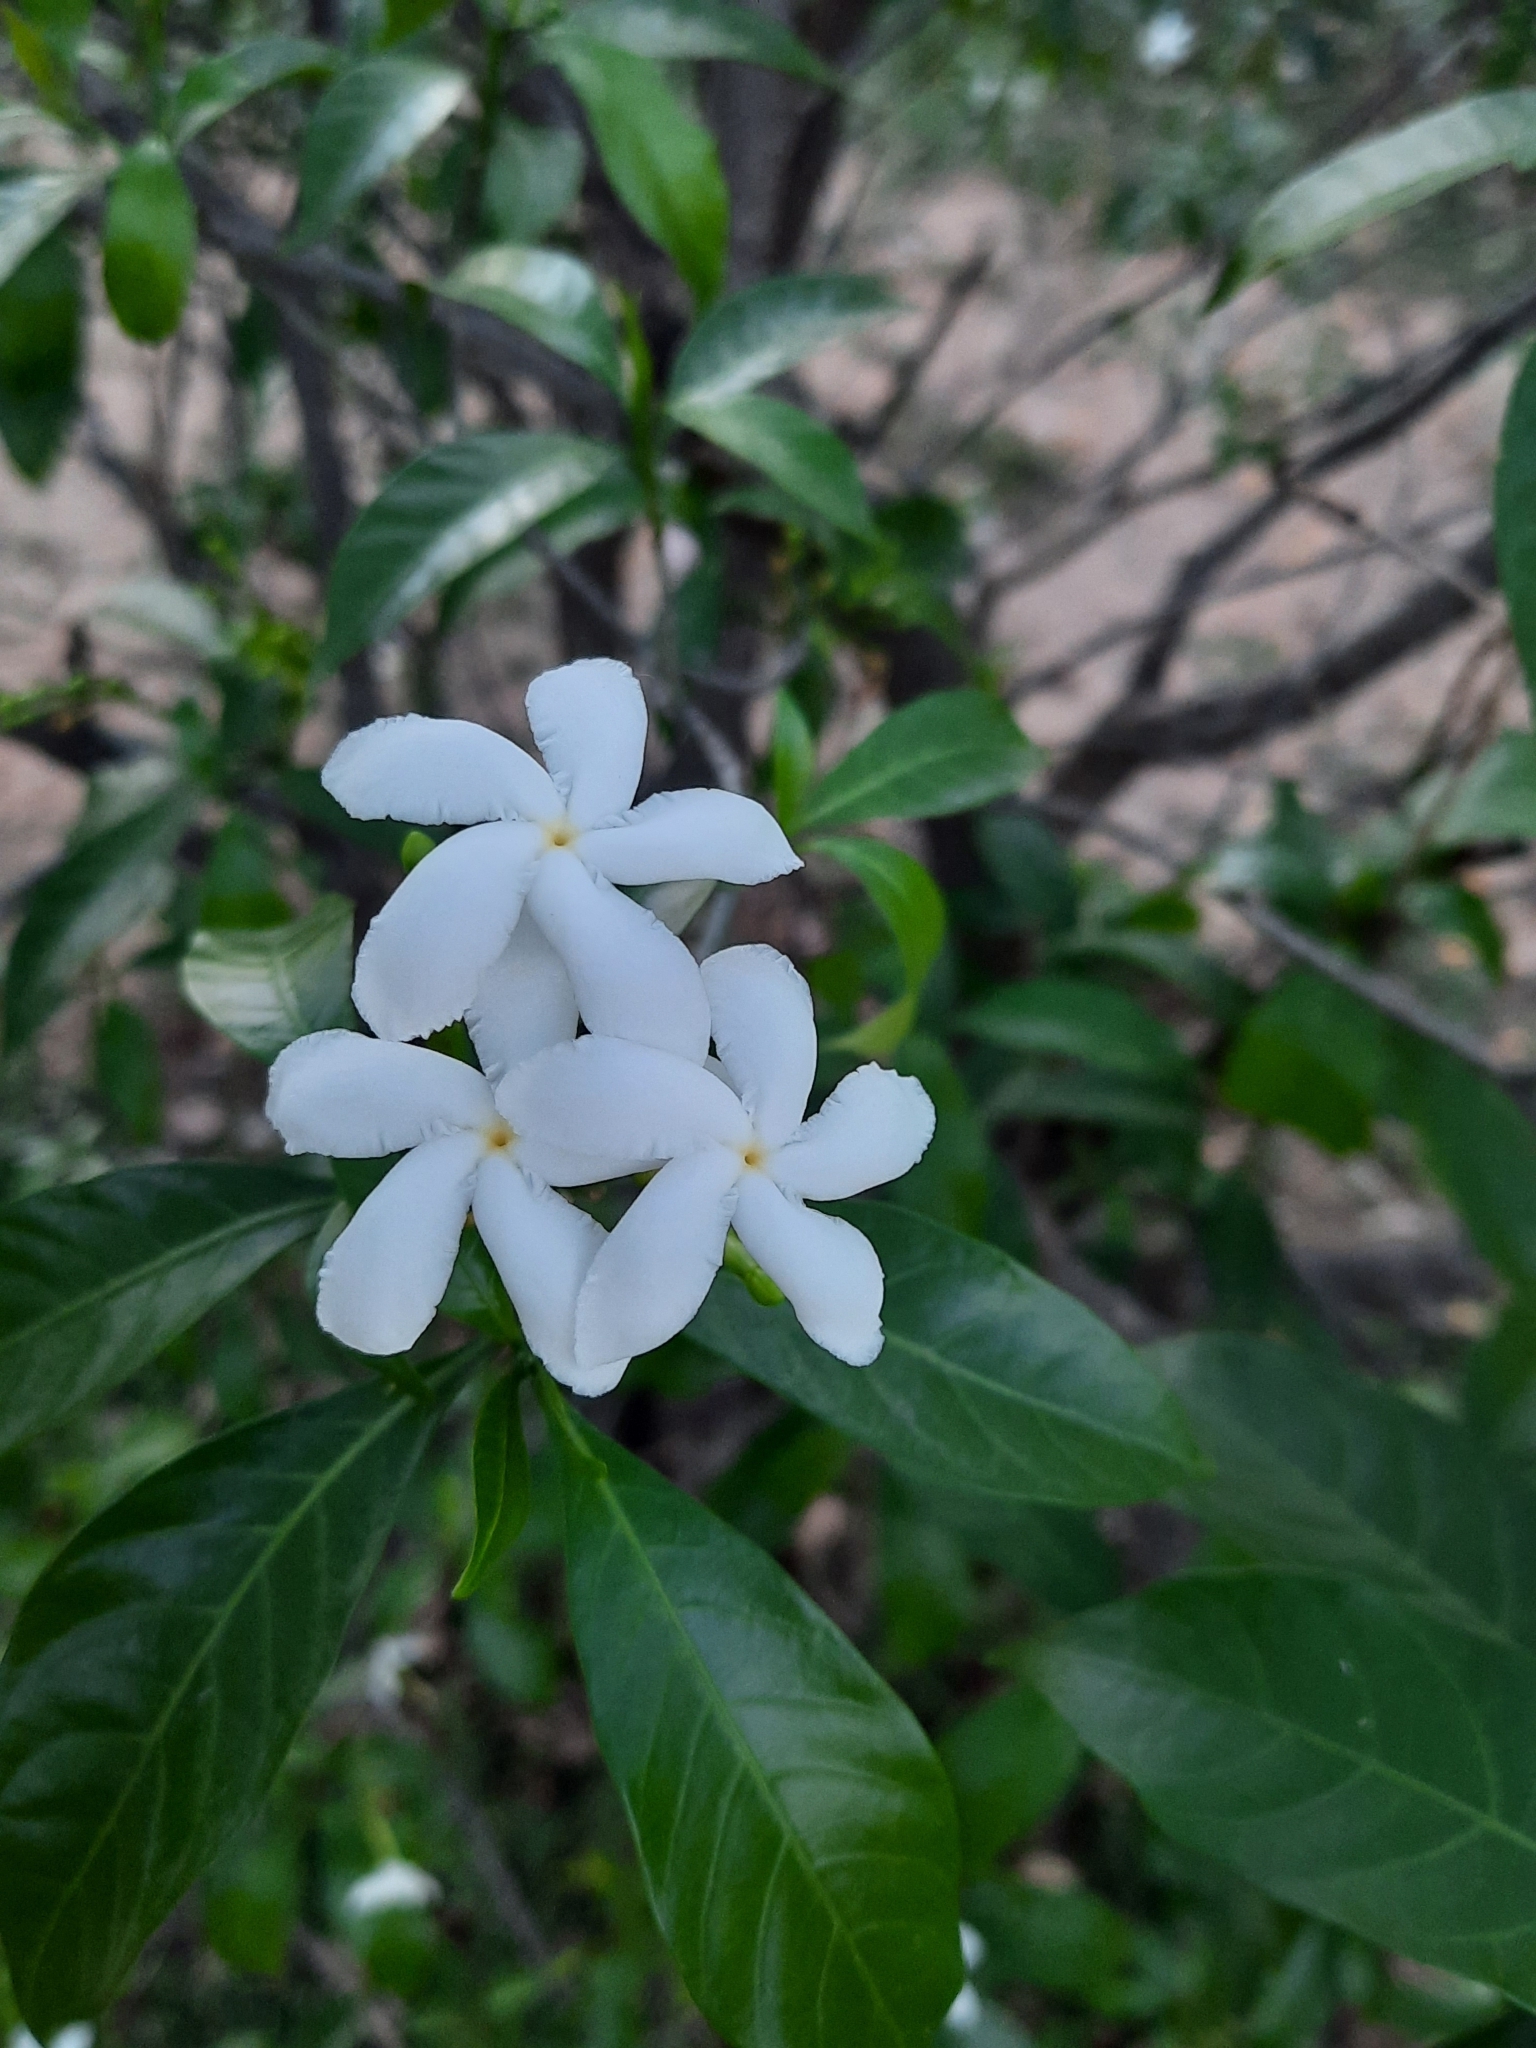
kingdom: Plantae
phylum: Tracheophyta
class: Magnoliopsida
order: Gentianales
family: Apocynaceae
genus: Tabernaemontana
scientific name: Tabernaemontana divaricata
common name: Pinwheelflower
